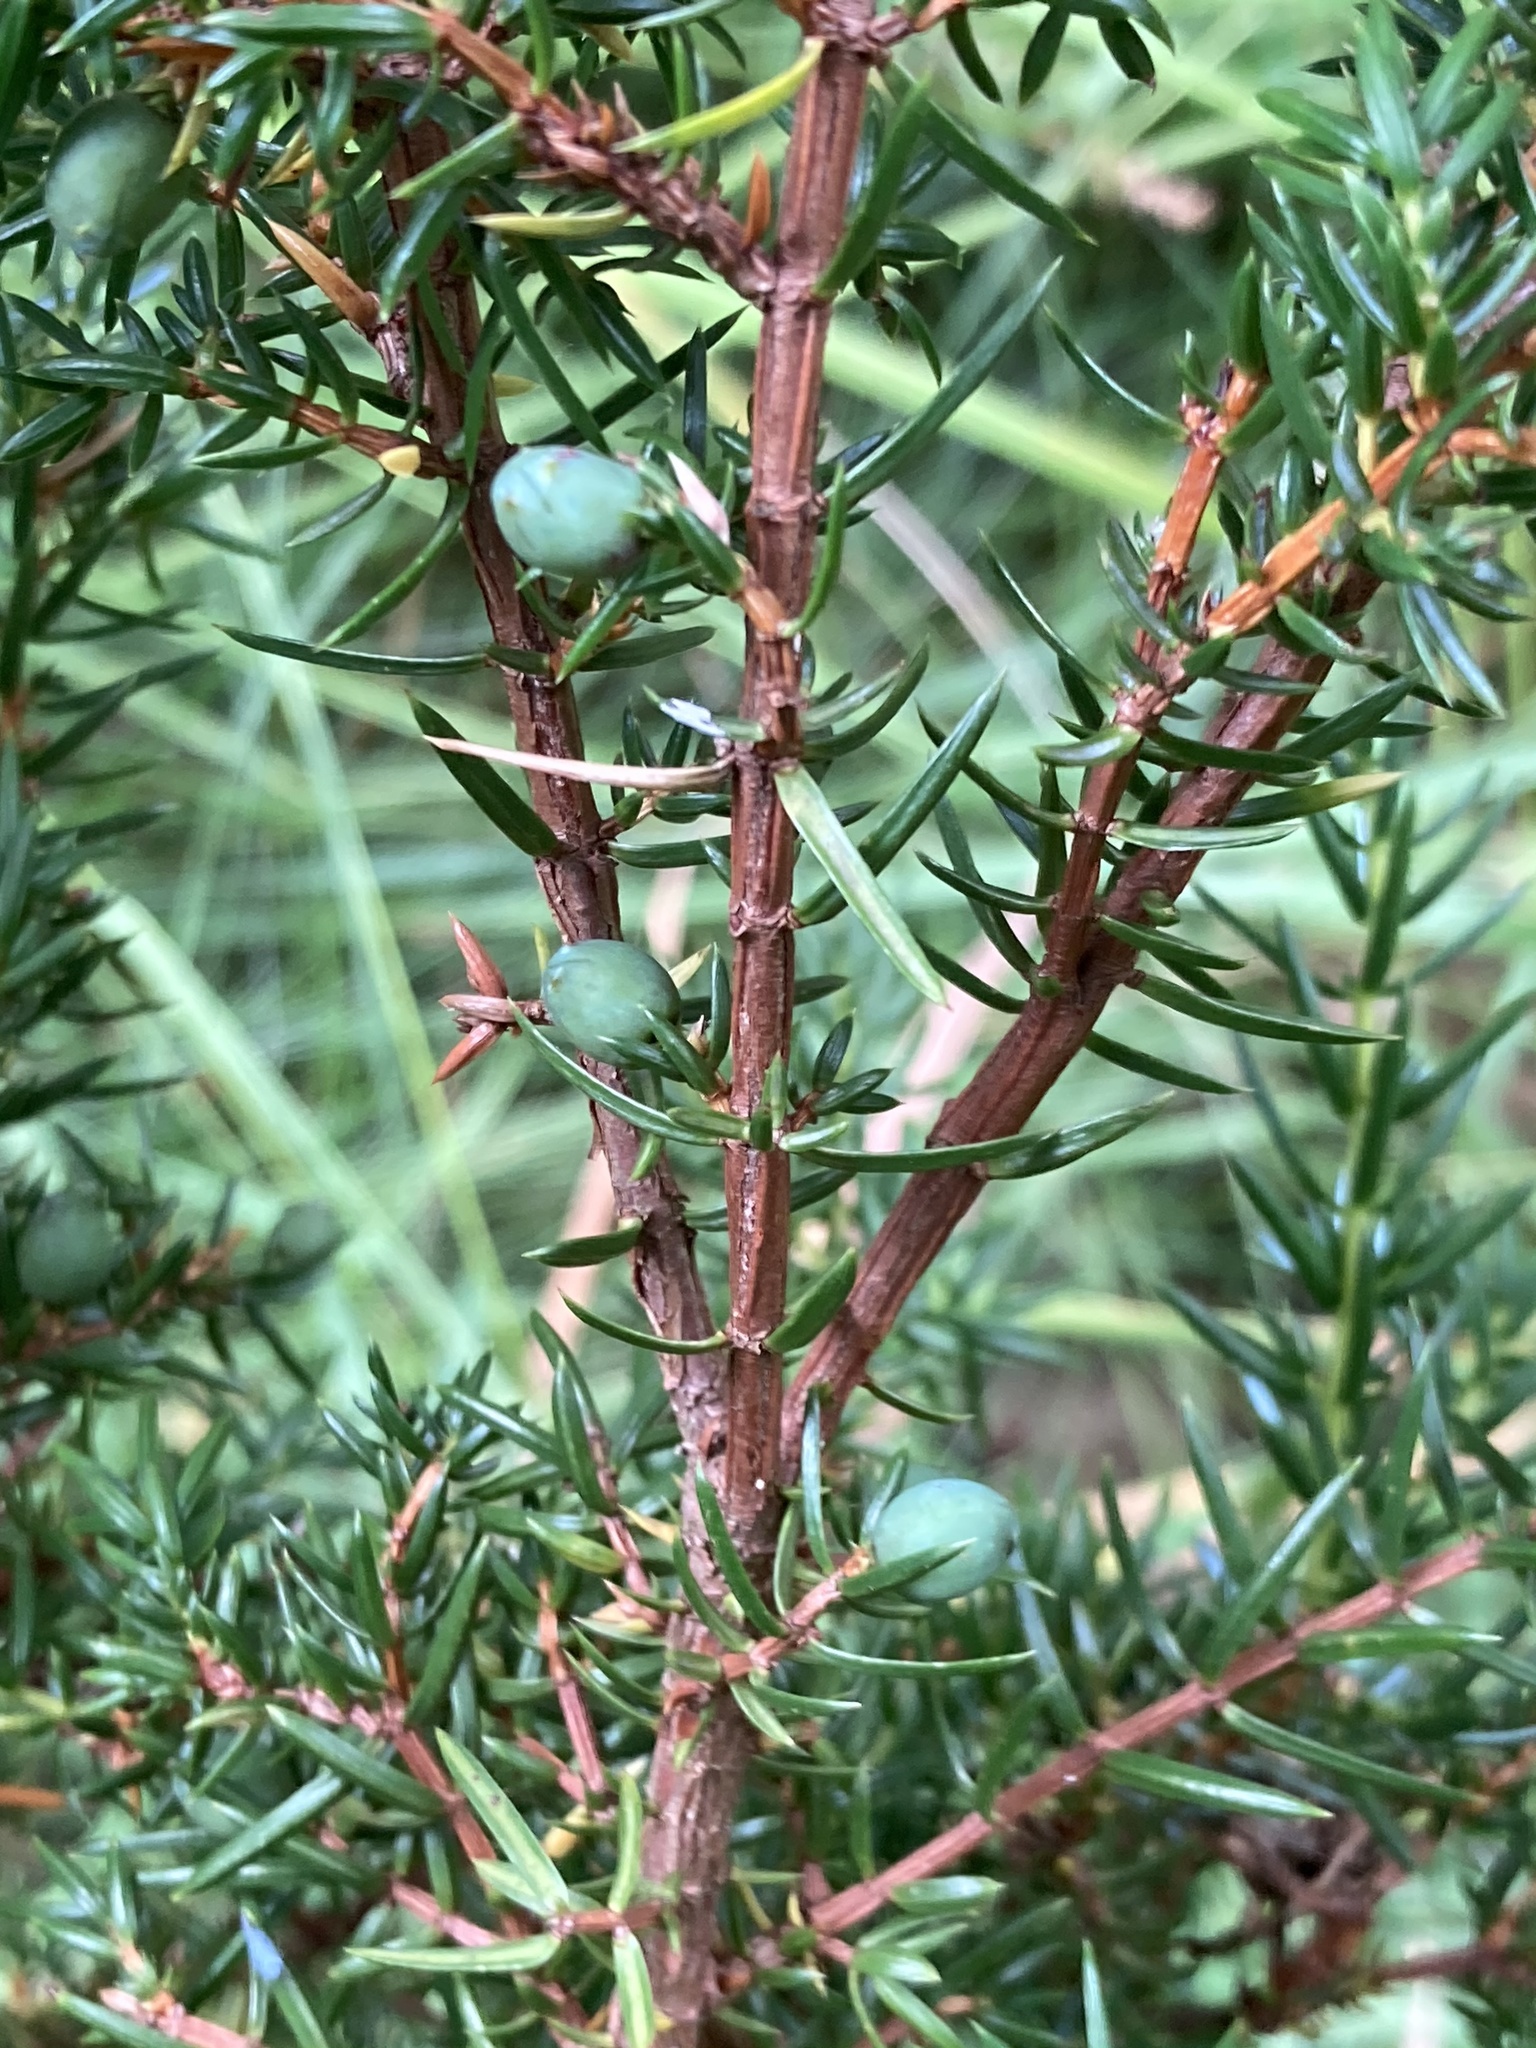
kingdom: Plantae
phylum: Tracheophyta
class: Pinopsida
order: Pinales
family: Cupressaceae
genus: Juniperus
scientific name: Juniperus communis
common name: Common juniper
